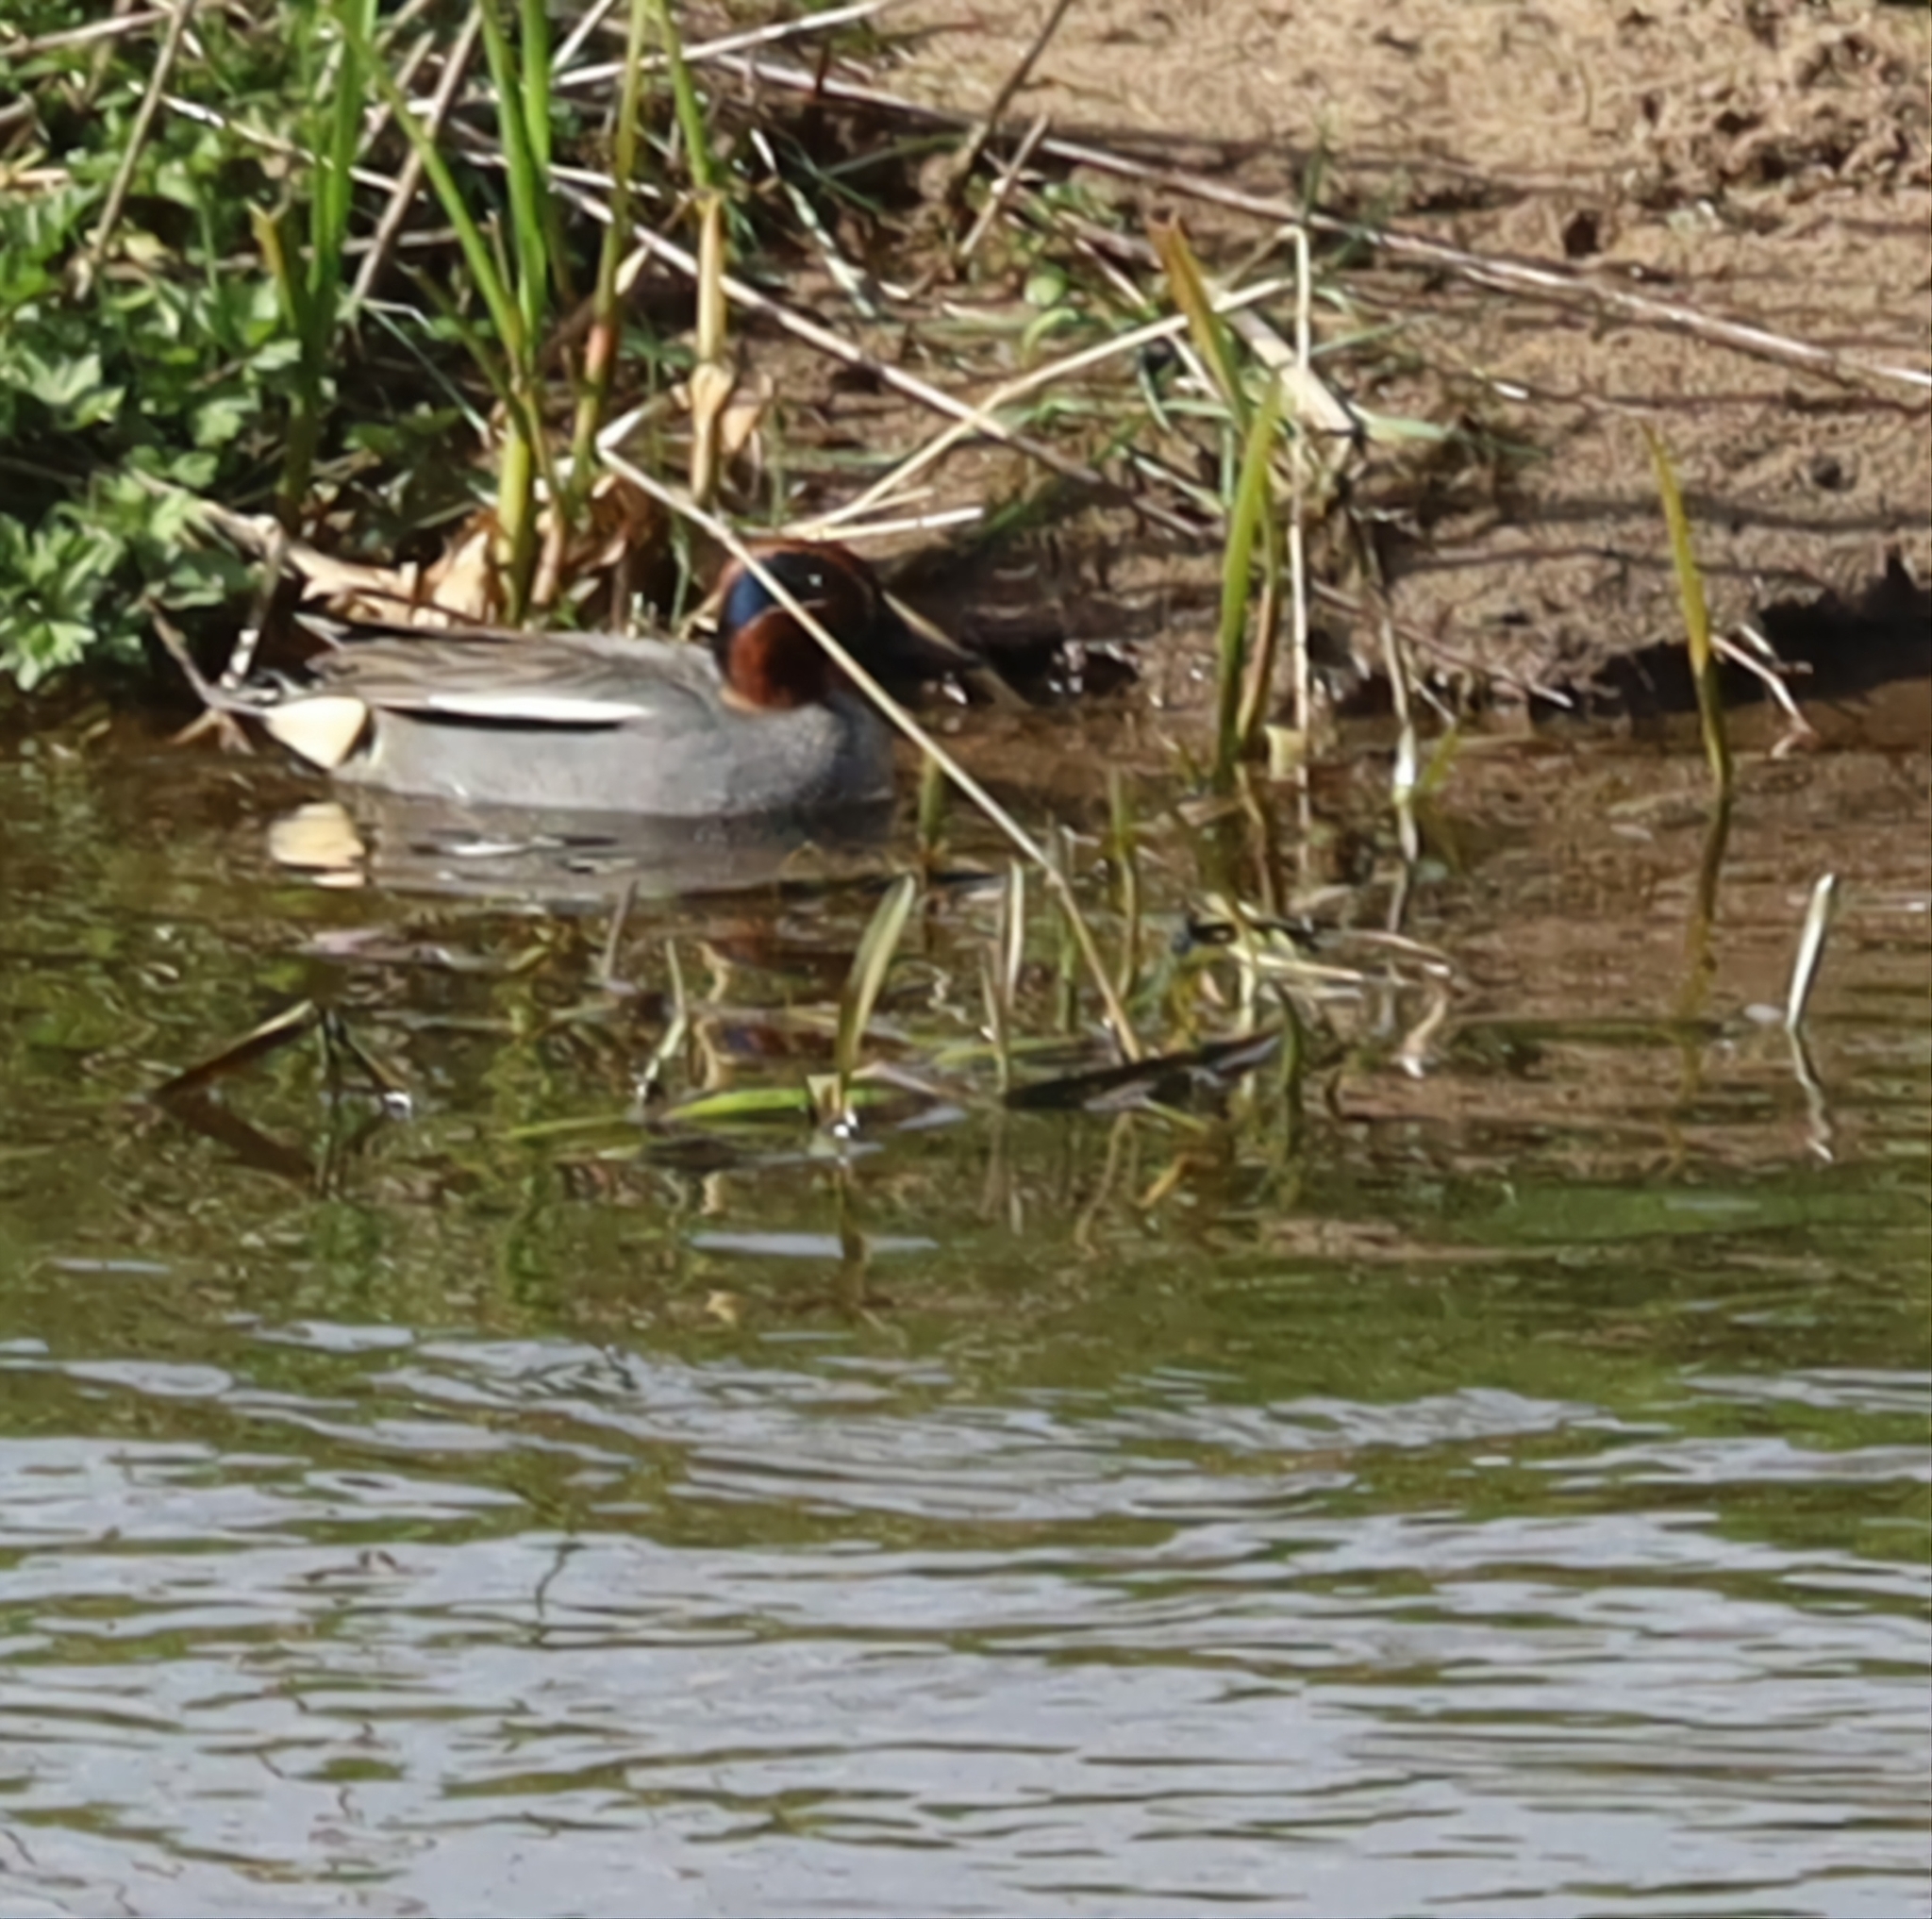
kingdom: Animalia
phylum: Chordata
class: Aves
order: Anseriformes
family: Anatidae
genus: Anas
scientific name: Anas crecca
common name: Eurasian teal
